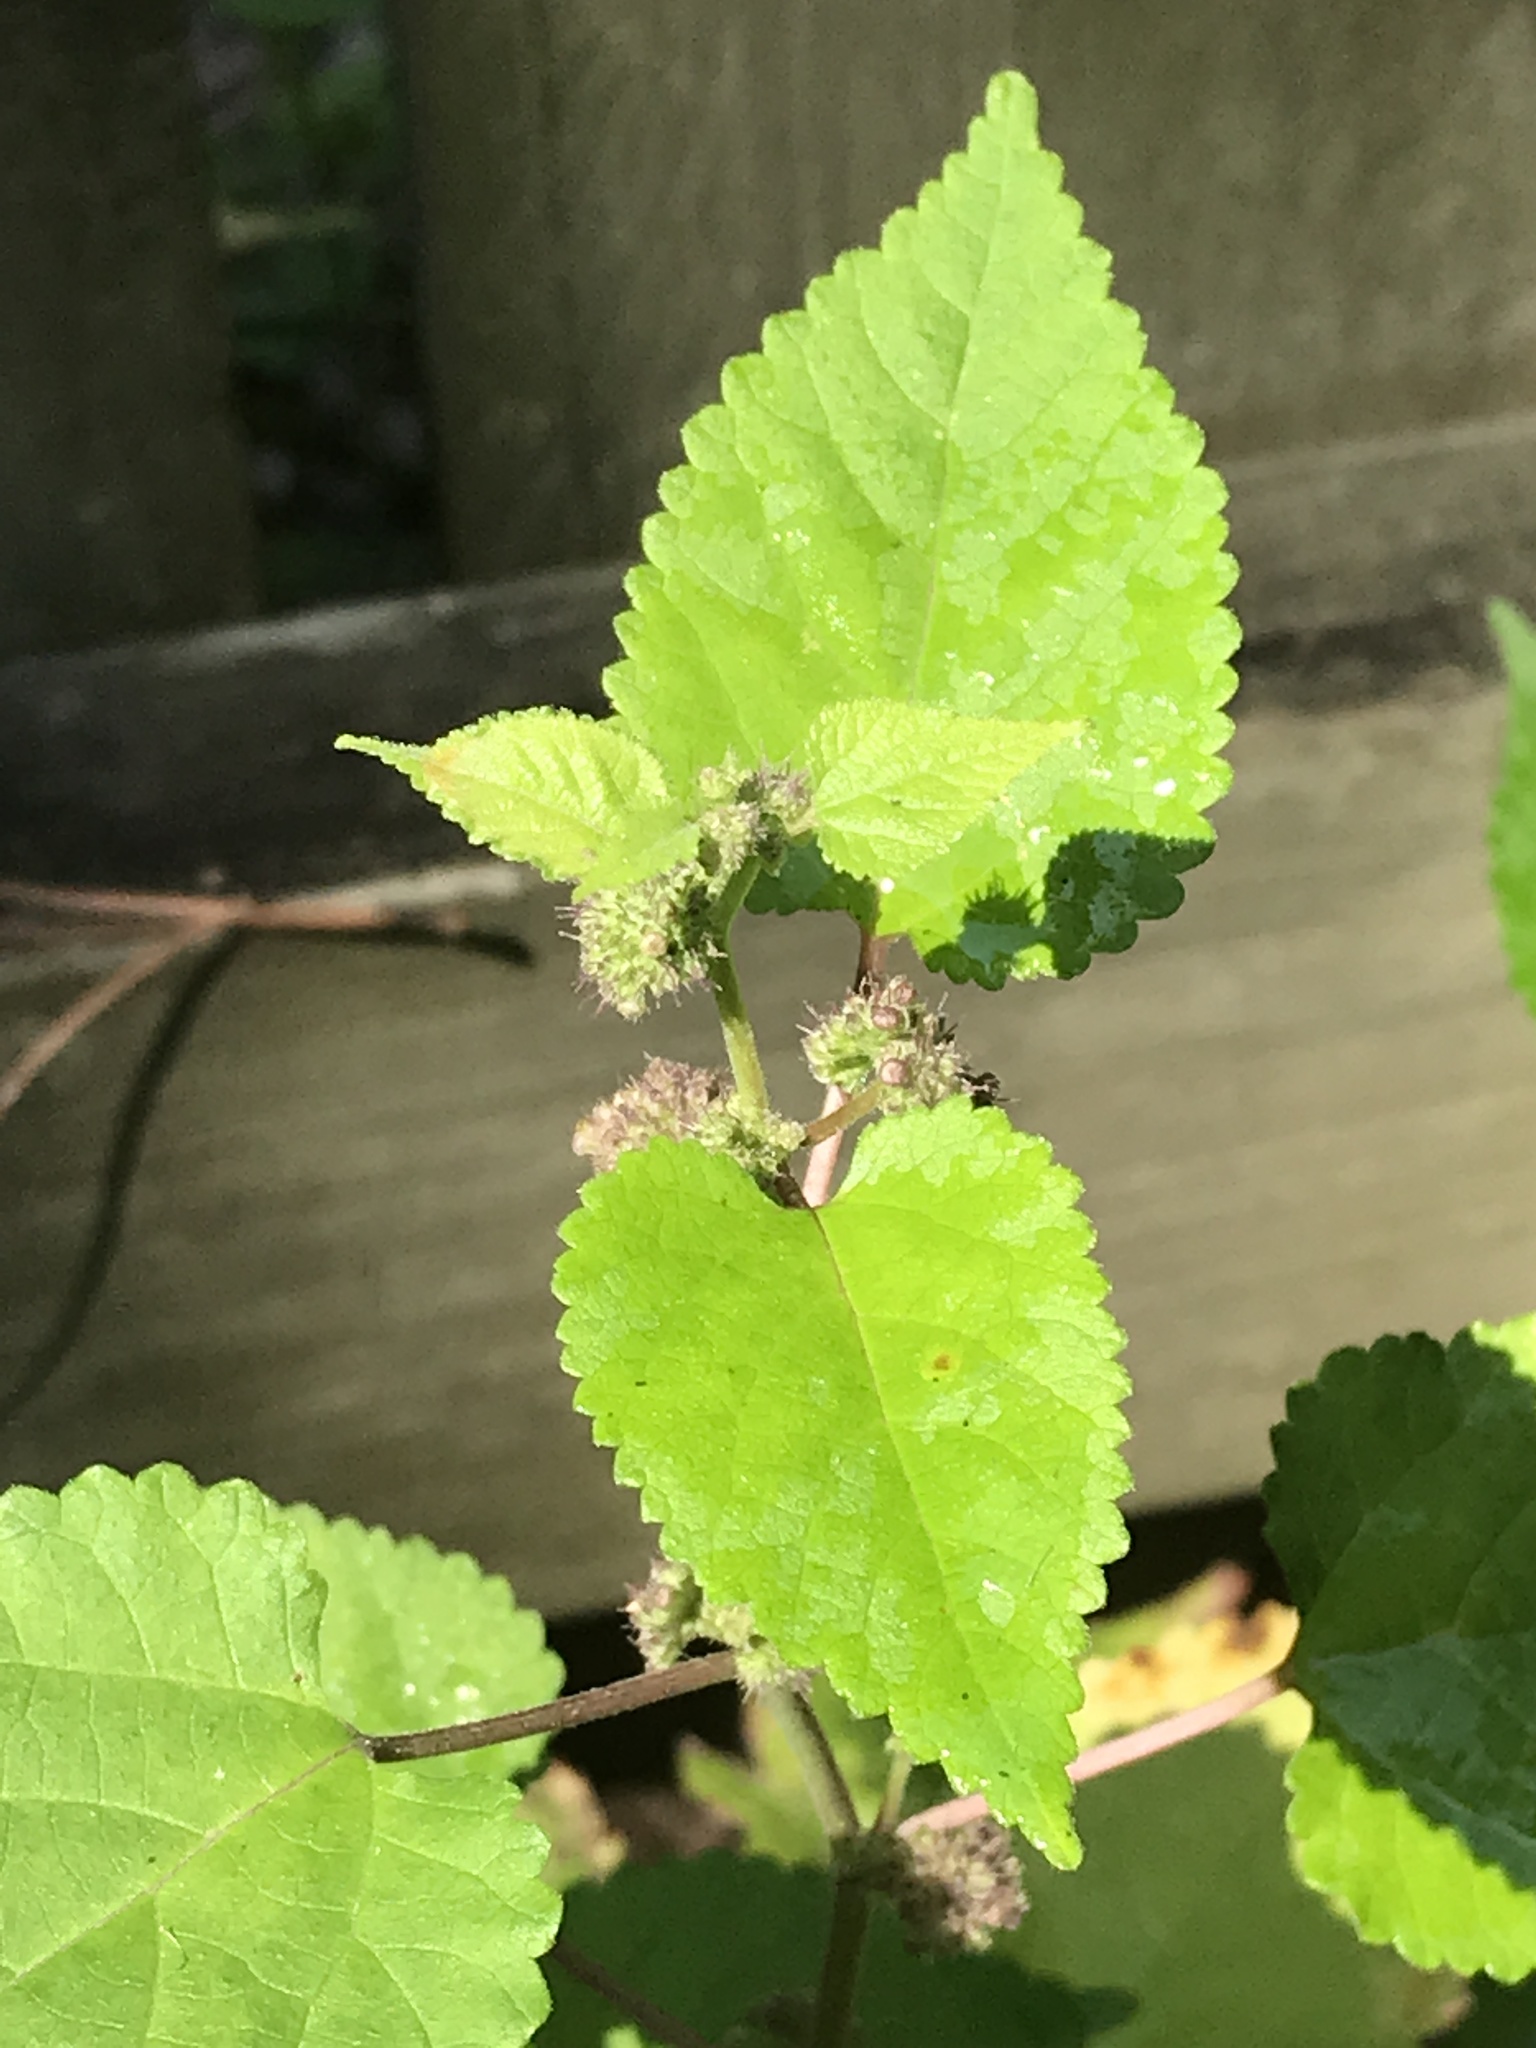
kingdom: Plantae
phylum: Tracheophyta
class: Magnoliopsida
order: Rosales
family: Moraceae
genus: Fatoua
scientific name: Fatoua villosa
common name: Hairy crabweed
